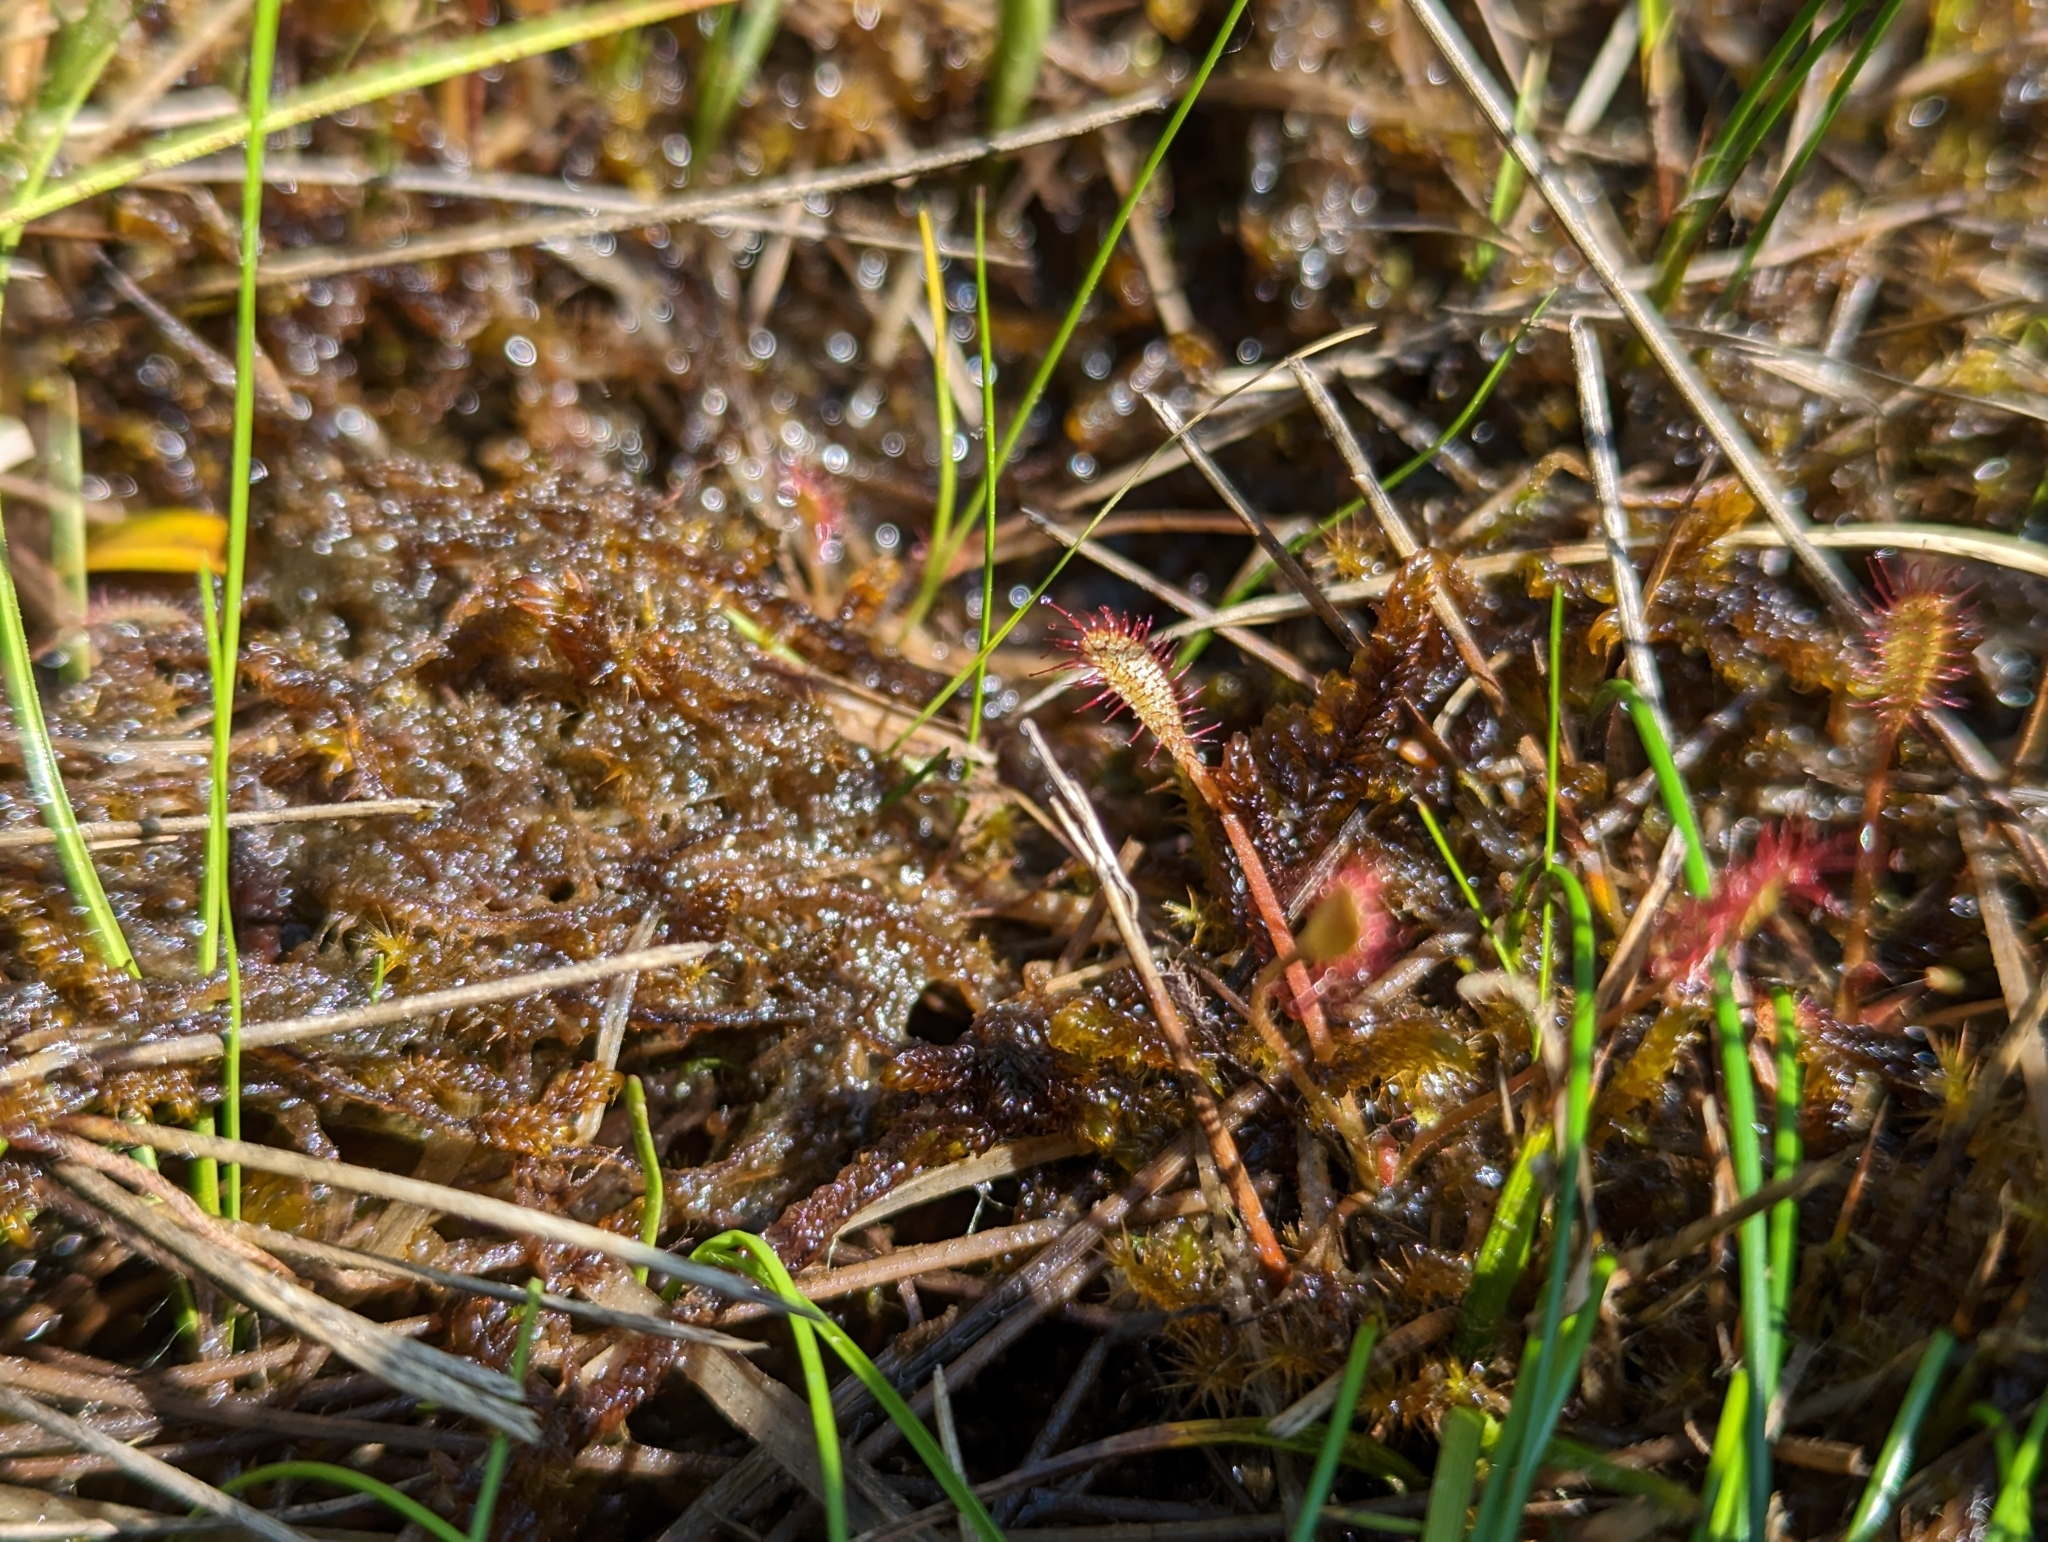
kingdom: Plantae
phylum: Tracheophyta
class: Magnoliopsida
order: Caryophyllales
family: Droseraceae
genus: Drosera
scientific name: Drosera anglica
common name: Great sundew
